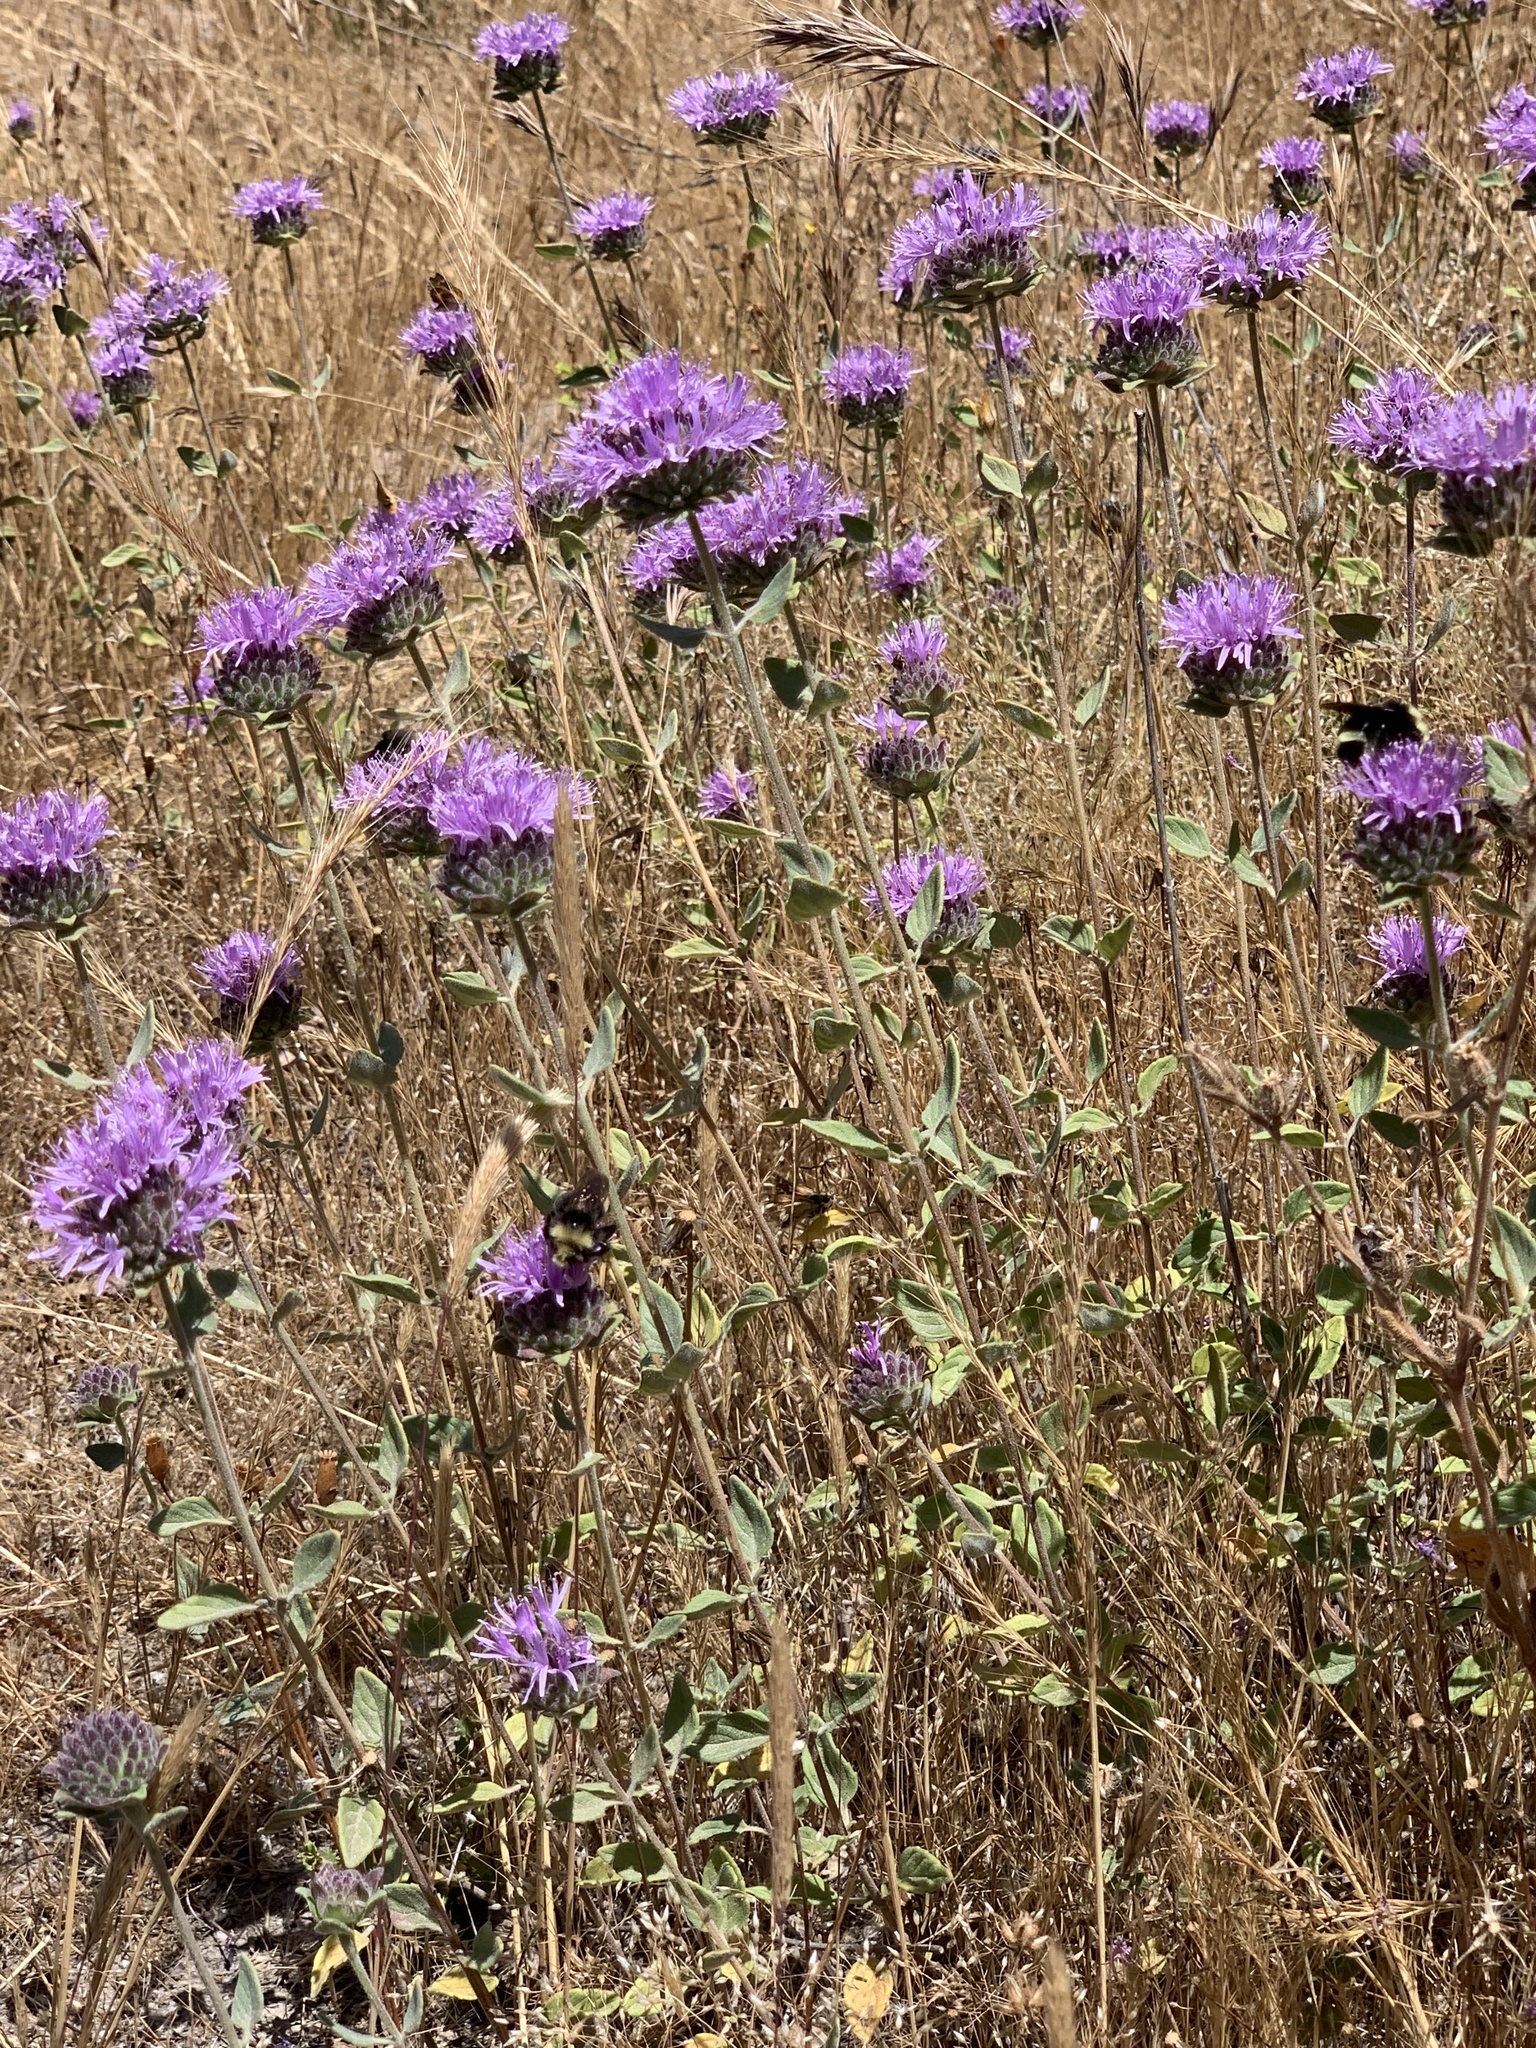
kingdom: Plantae
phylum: Tracheophyta
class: Magnoliopsida
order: Lamiales
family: Lamiaceae
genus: Monardella
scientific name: Monardella odoratissima
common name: Pacific monardella
